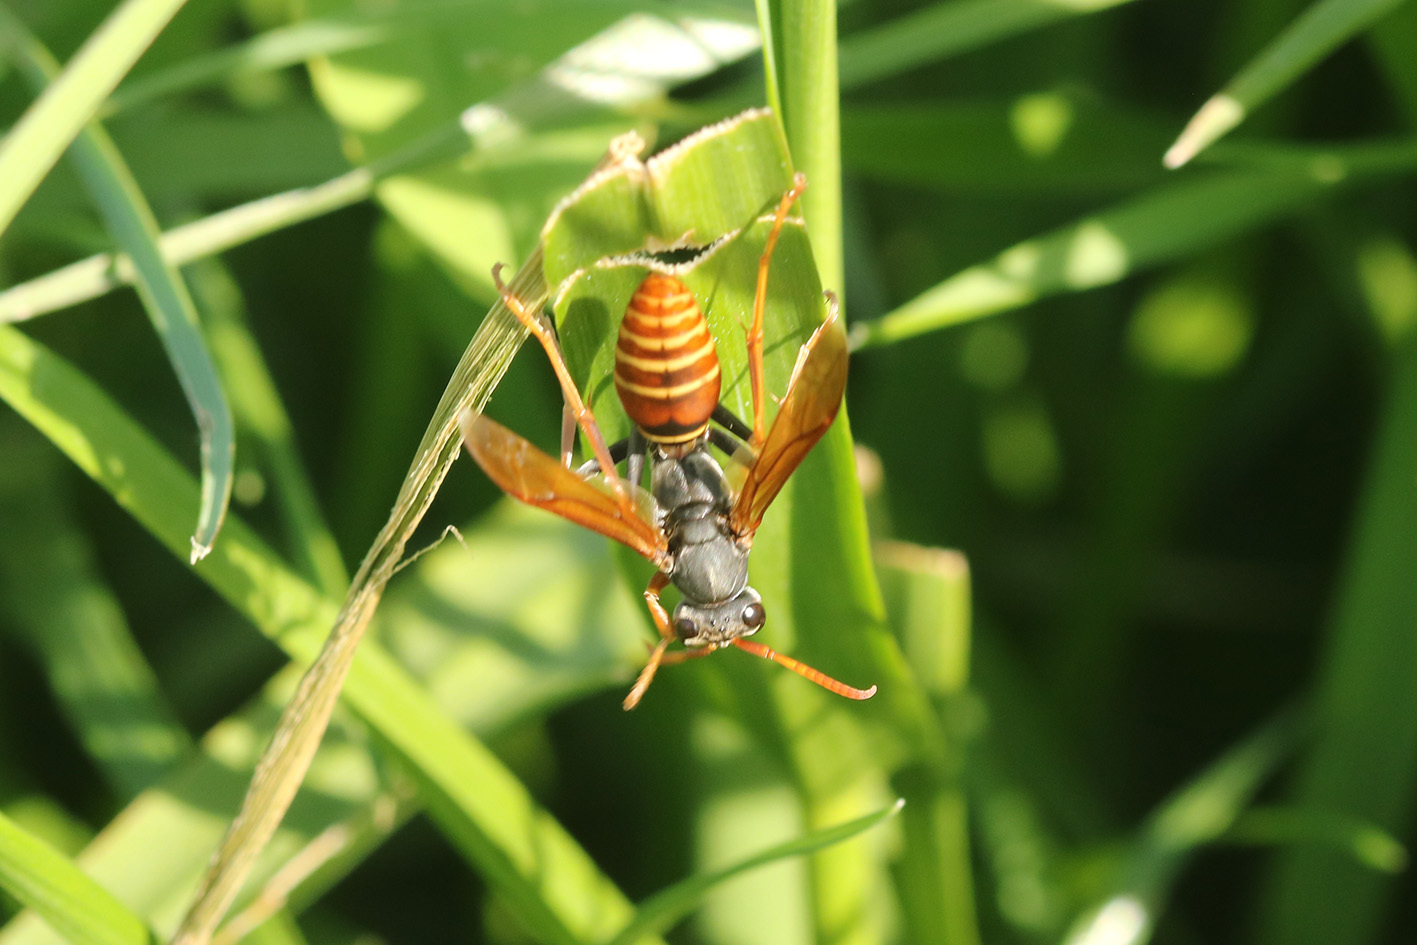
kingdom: Animalia
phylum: Arthropoda
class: Insecta
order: Hymenoptera
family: Eumenidae
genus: Polistes
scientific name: Polistes billardieri
